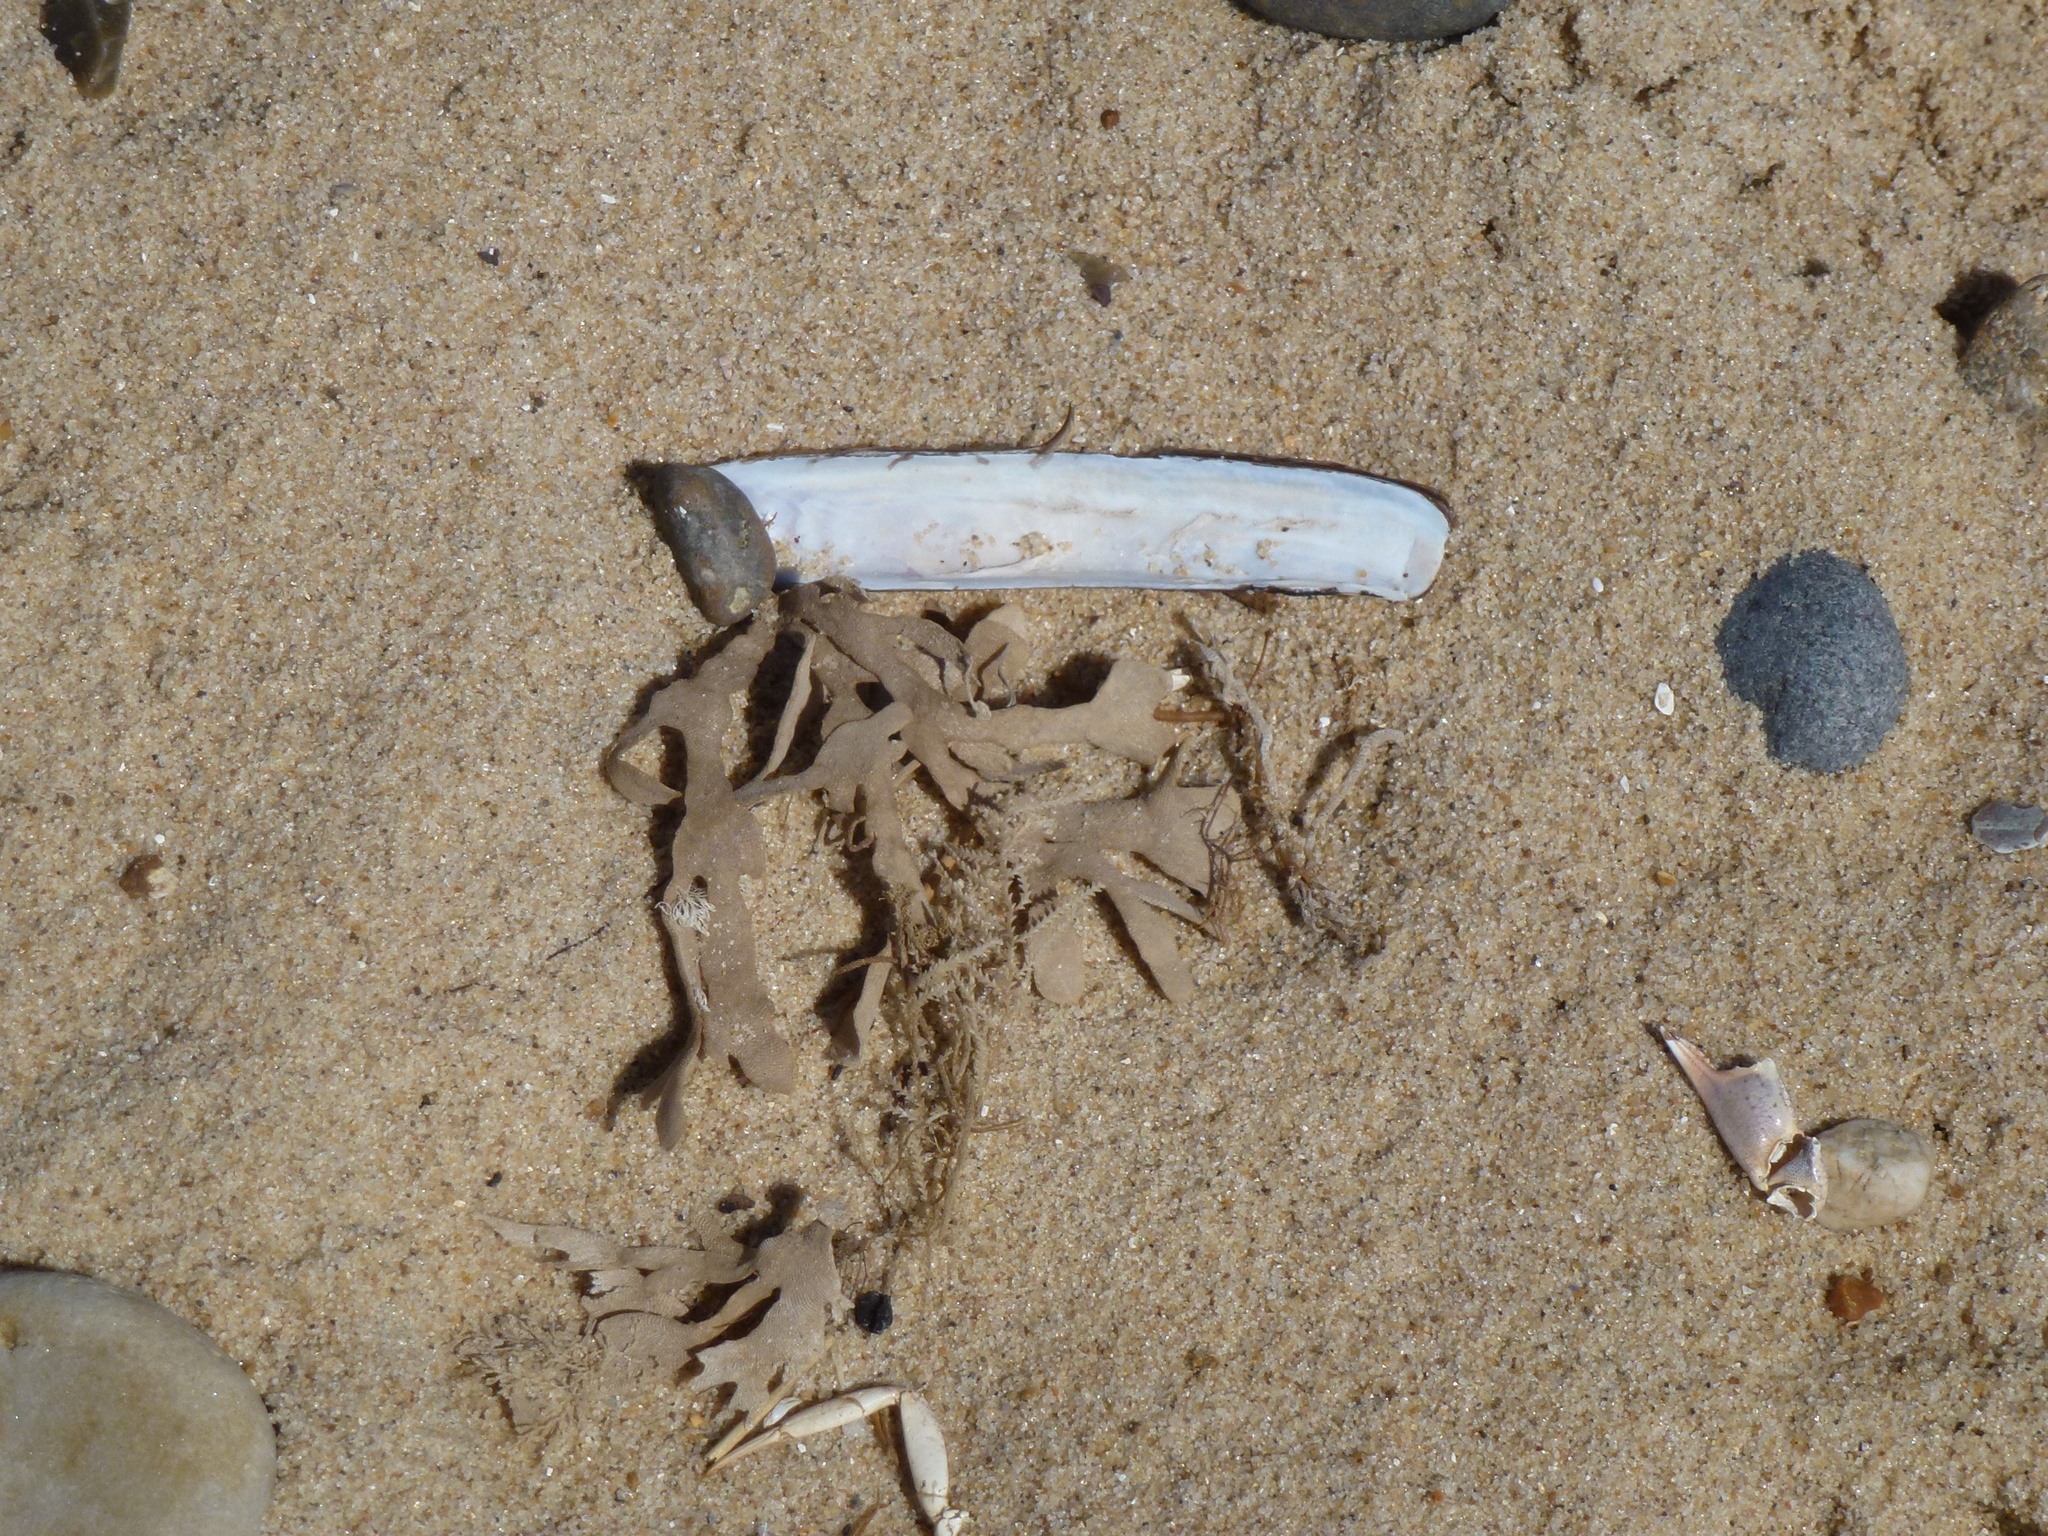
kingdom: Animalia
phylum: Bryozoa
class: Gymnolaemata
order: Cheilostomatida
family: Flustridae
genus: Flustra
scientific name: Flustra foliacea
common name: Hornwrack
